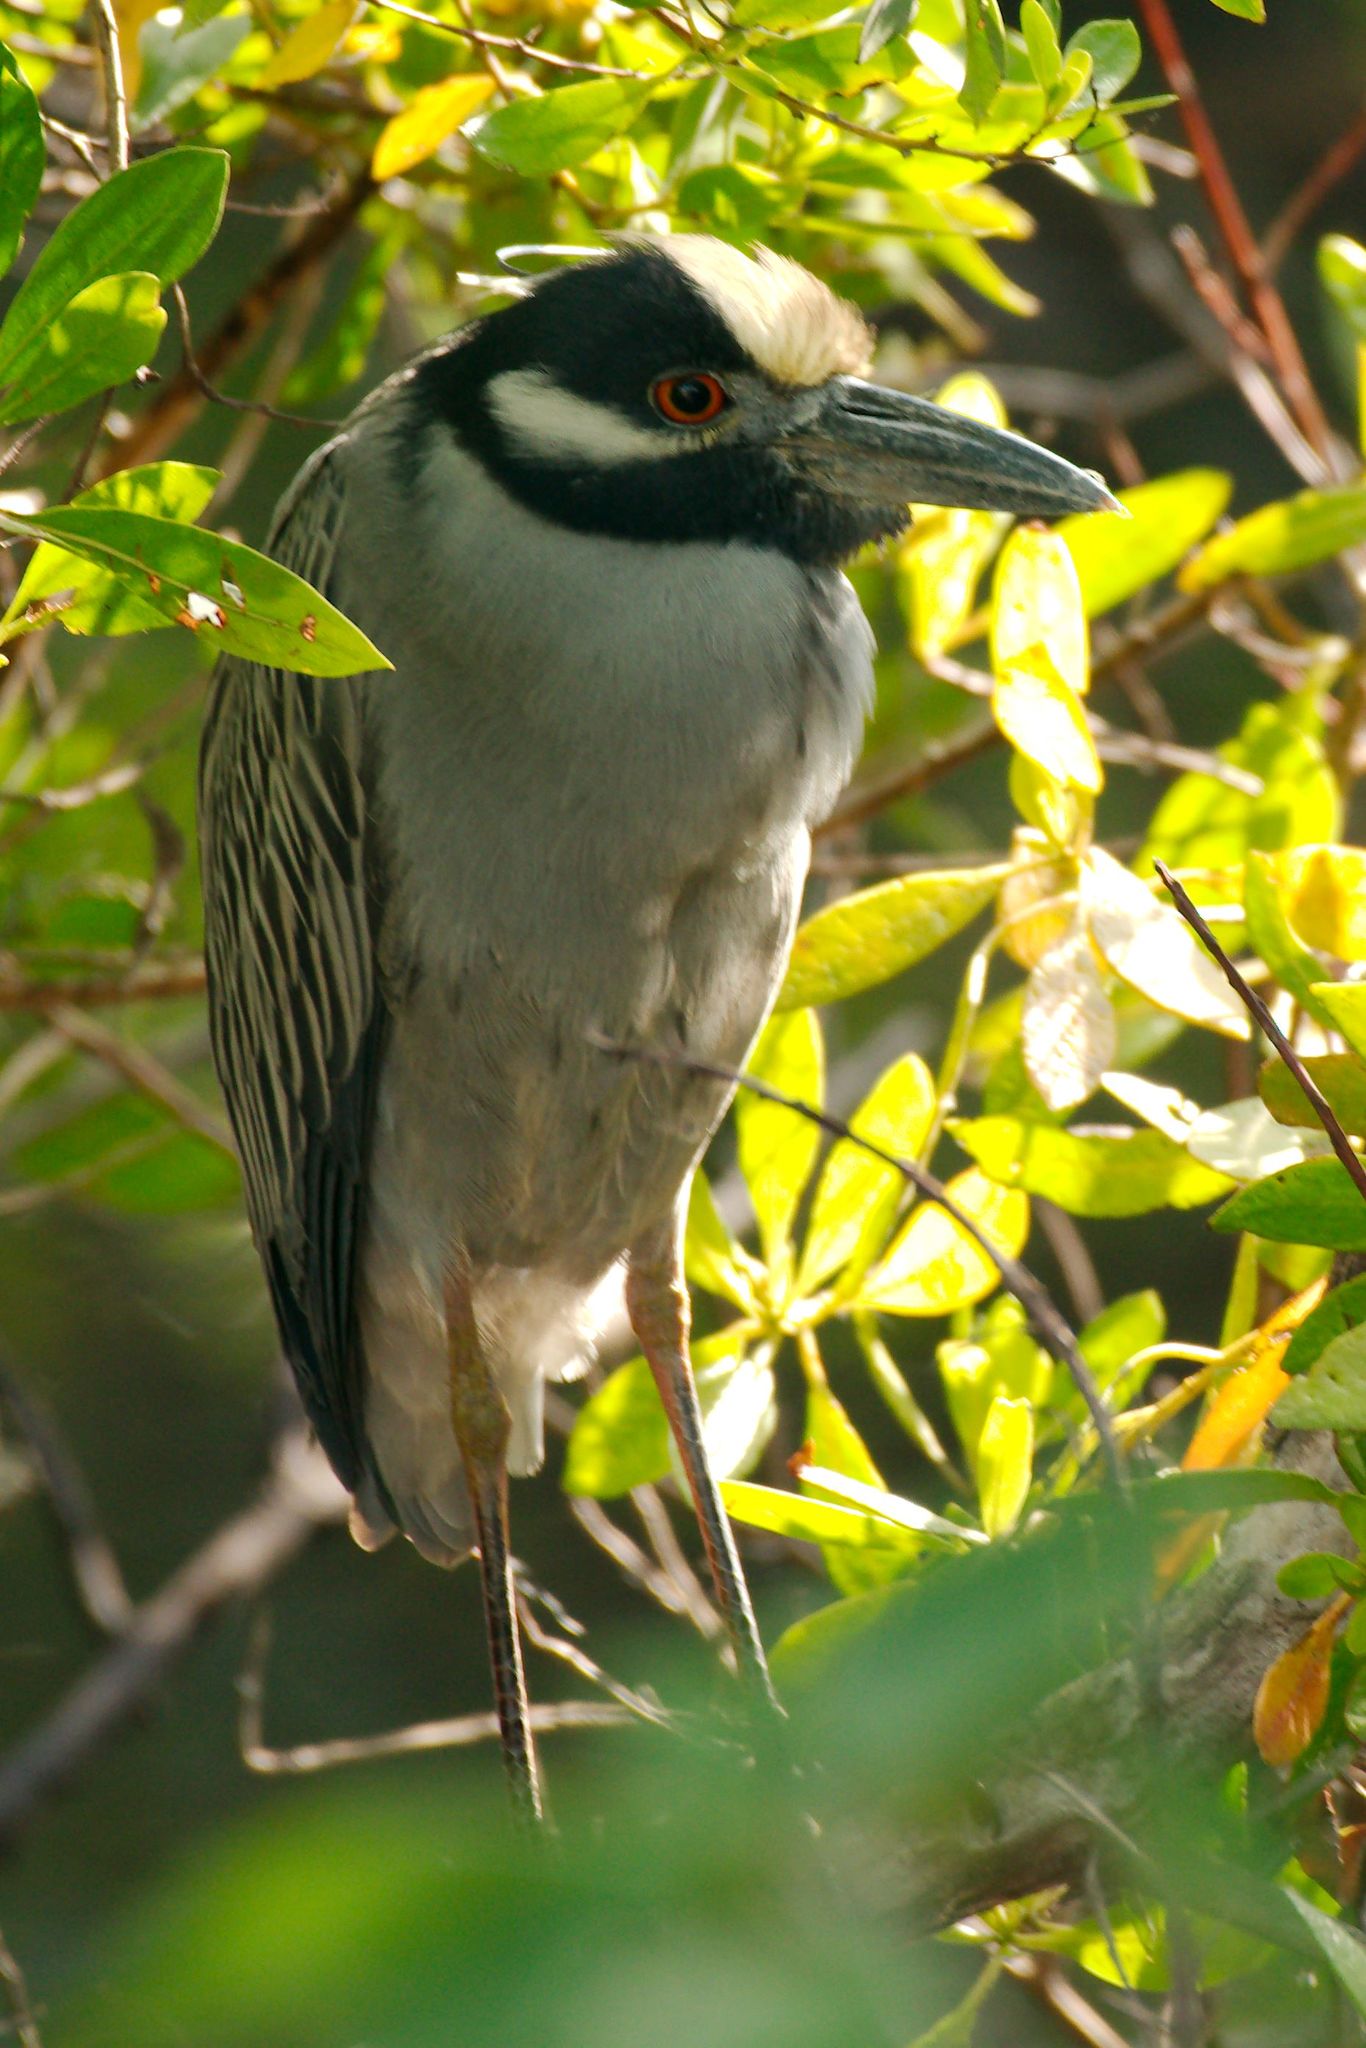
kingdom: Animalia
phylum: Chordata
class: Aves
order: Pelecaniformes
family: Ardeidae
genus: Nyctanassa
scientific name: Nyctanassa violacea
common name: Yellow-crowned night heron
